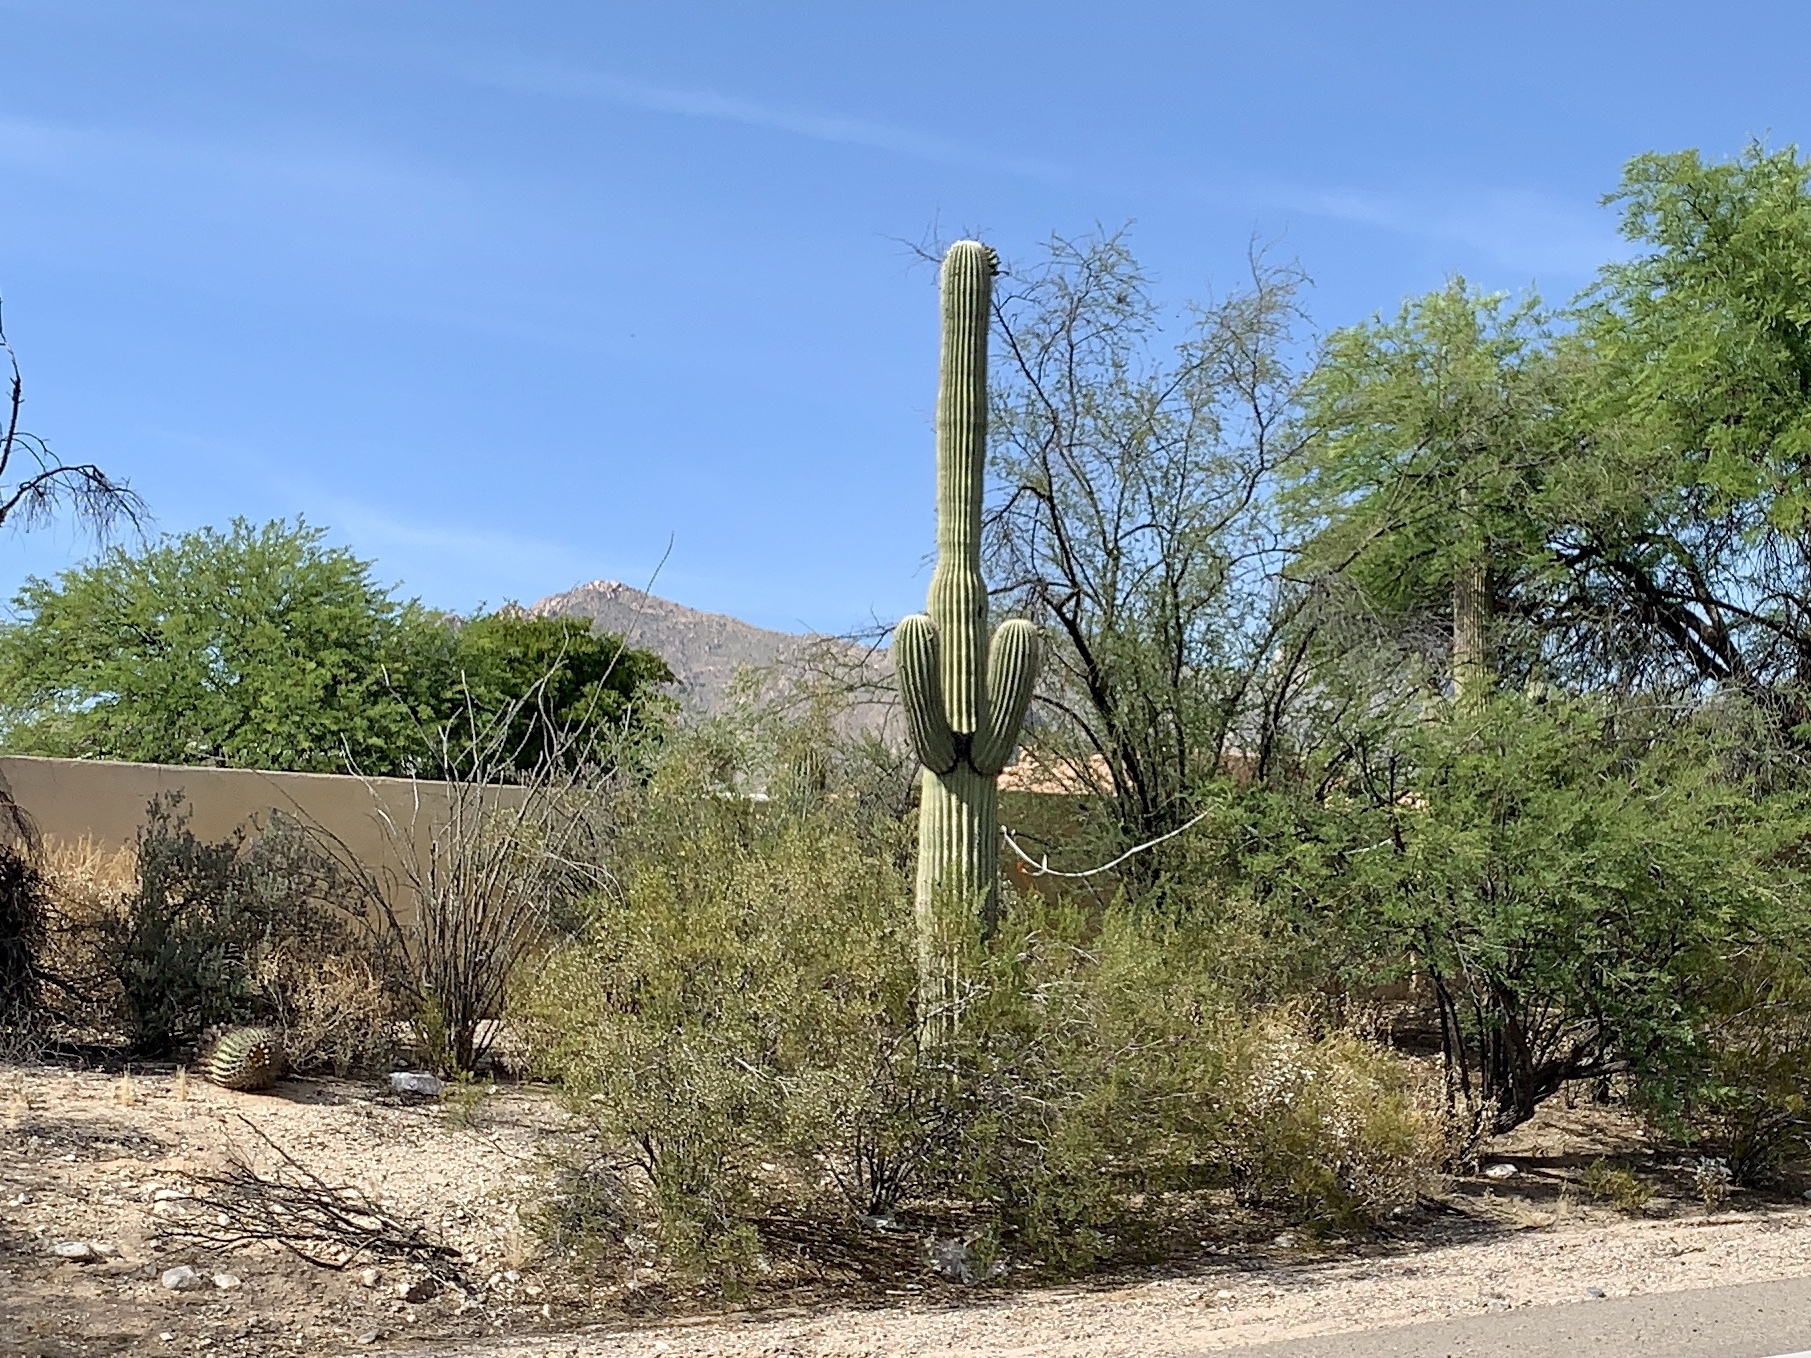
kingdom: Plantae
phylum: Tracheophyta
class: Magnoliopsida
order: Caryophyllales
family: Cactaceae
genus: Carnegiea
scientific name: Carnegiea gigantea
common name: Saguaro
